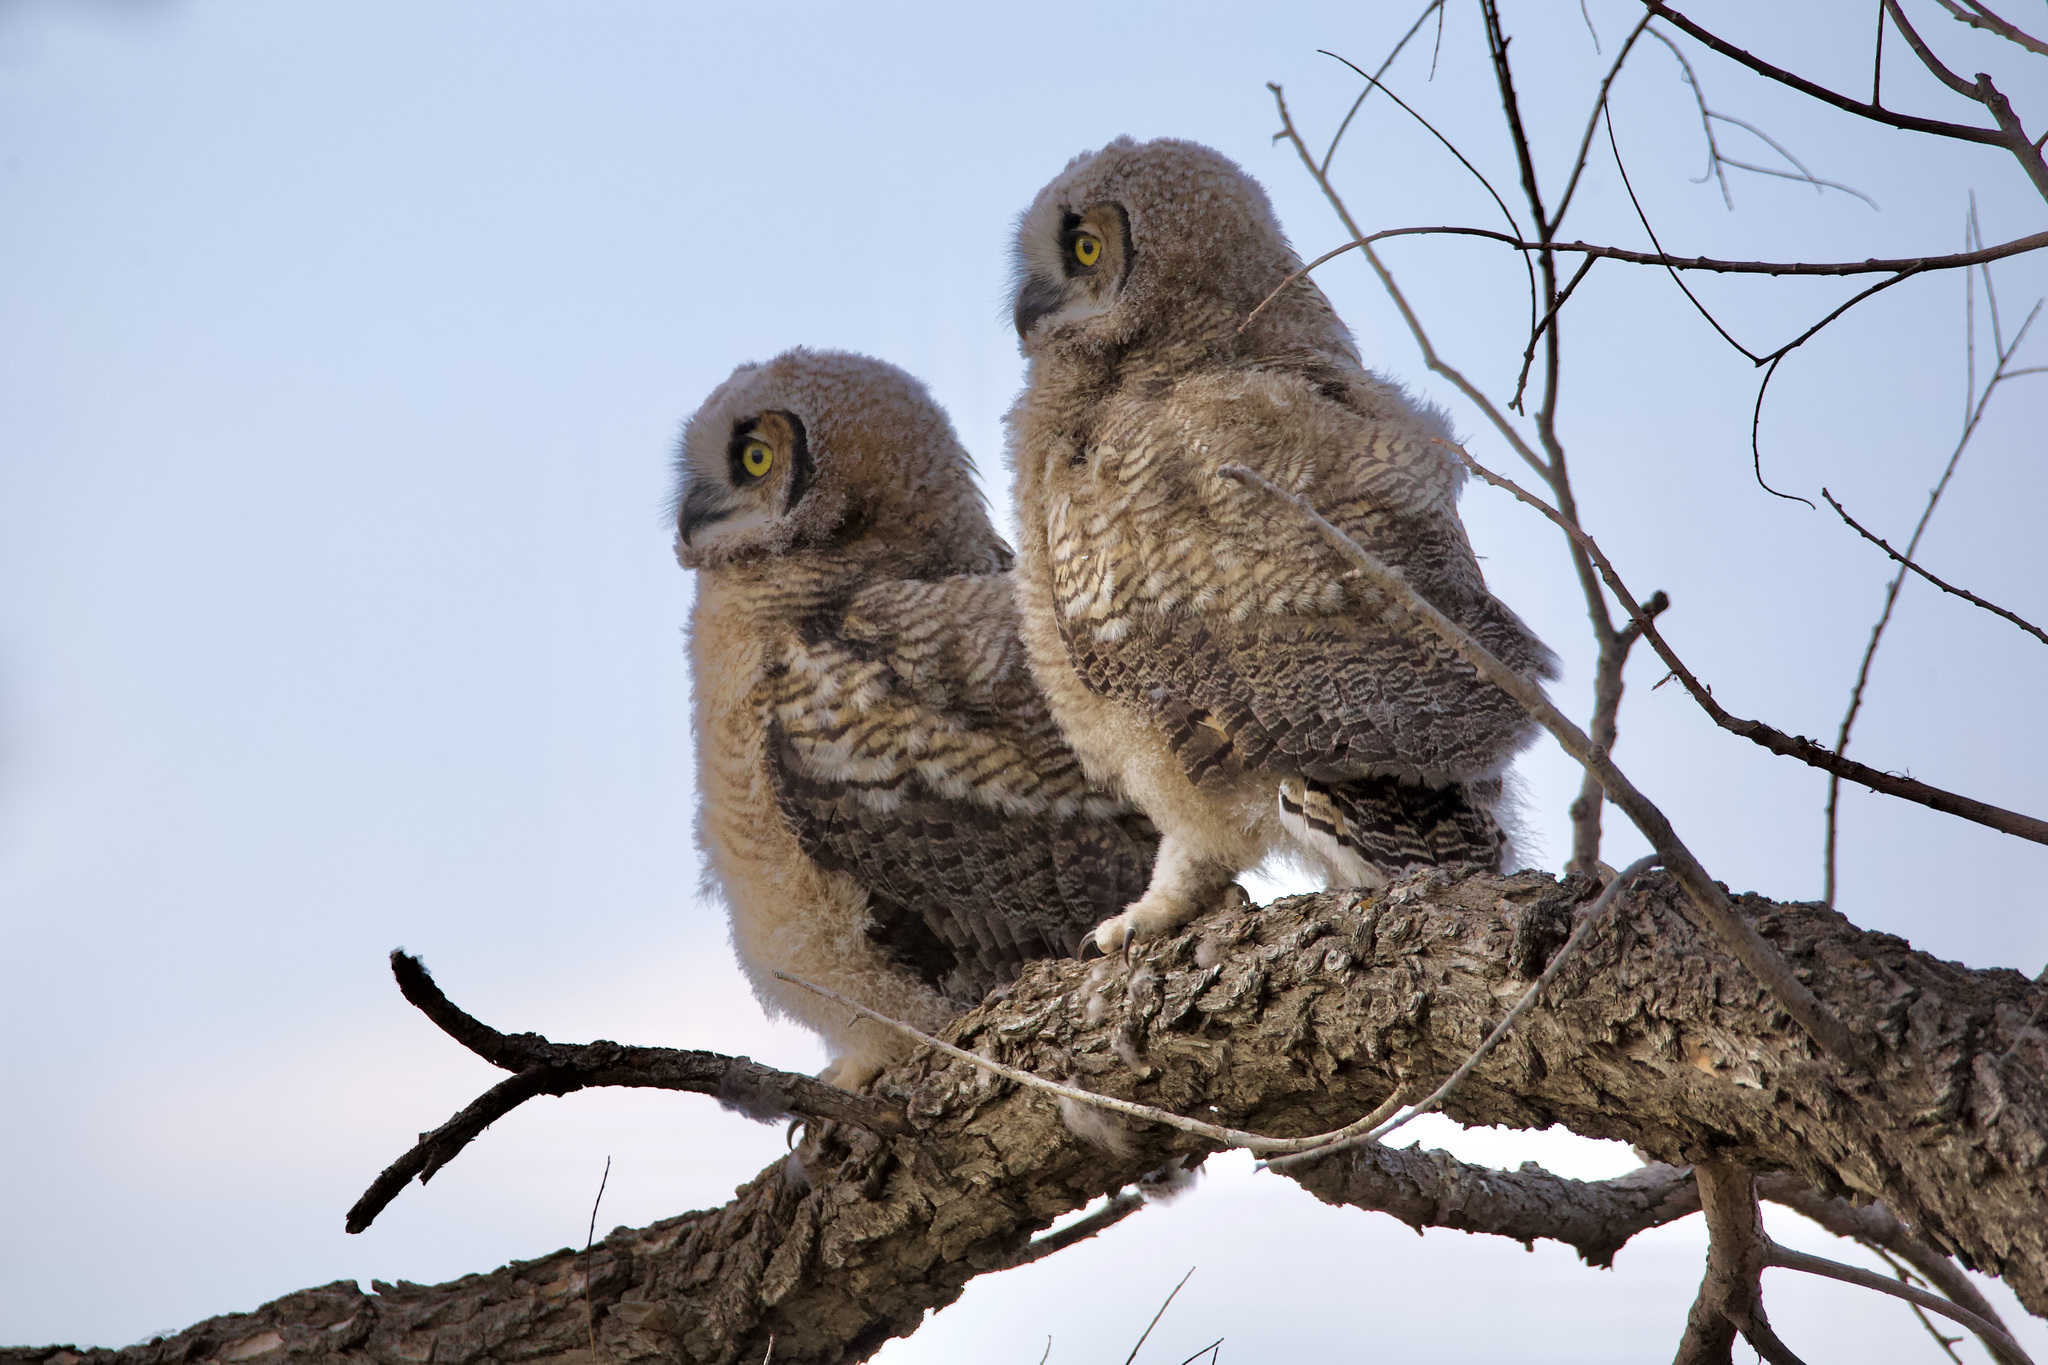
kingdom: Animalia
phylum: Chordata
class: Aves
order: Strigiformes
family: Strigidae
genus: Bubo
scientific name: Bubo virginianus
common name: Great horned owl
